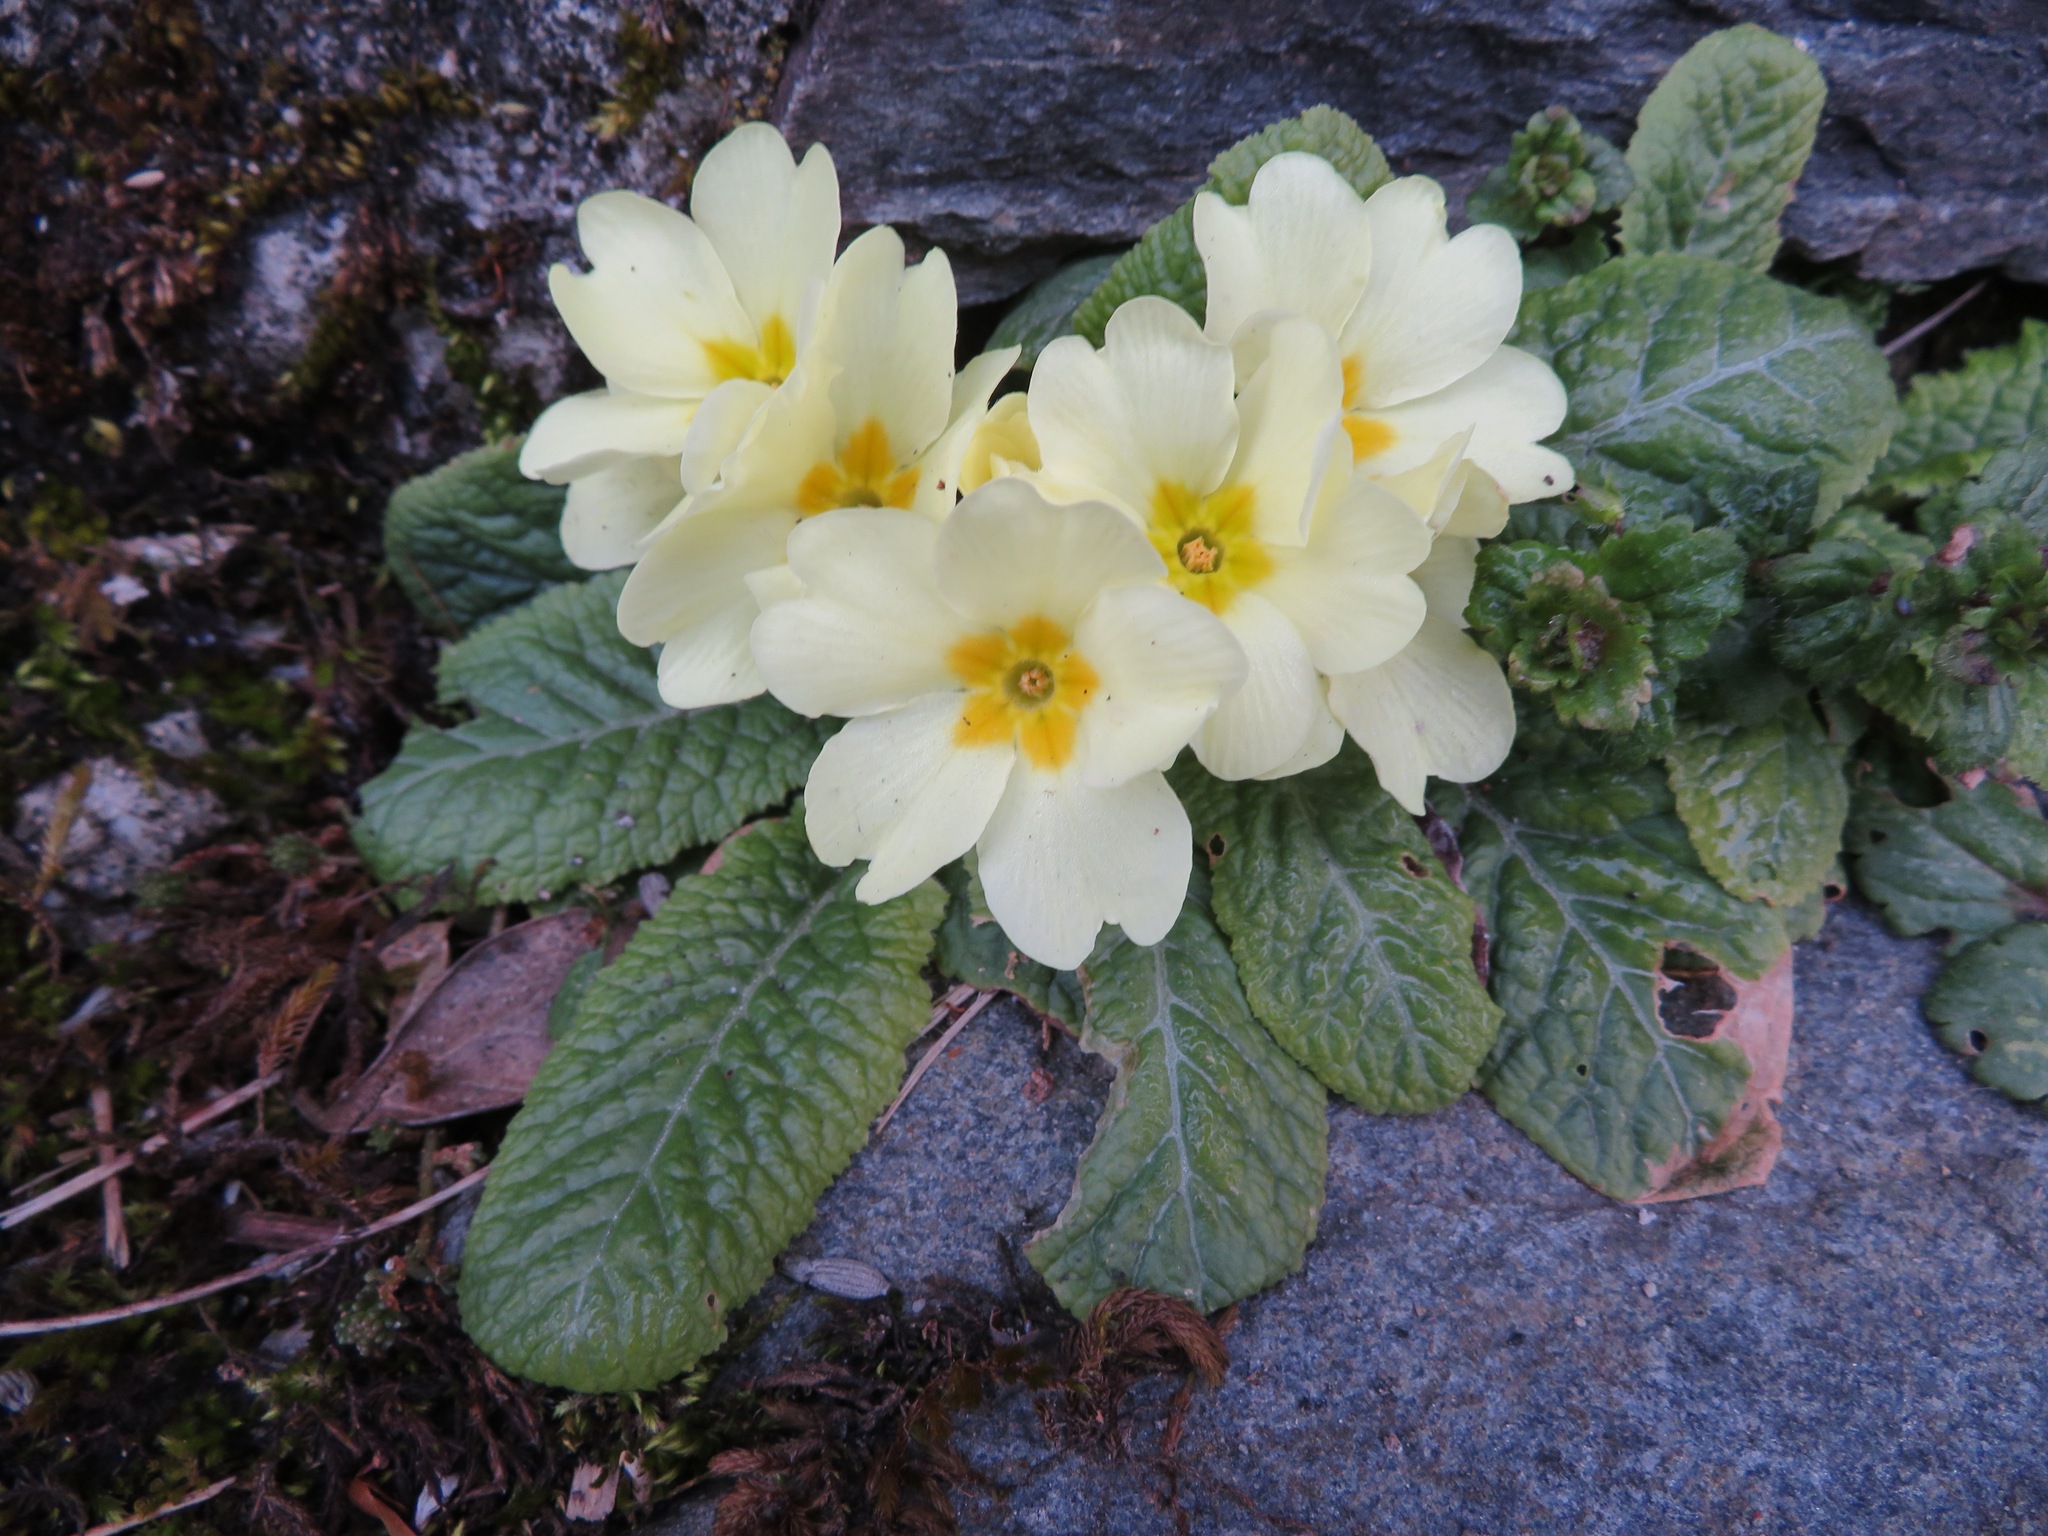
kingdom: Plantae
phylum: Tracheophyta
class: Magnoliopsida
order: Ericales
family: Primulaceae
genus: Primula
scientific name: Primula vulgaris
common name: Primrose
